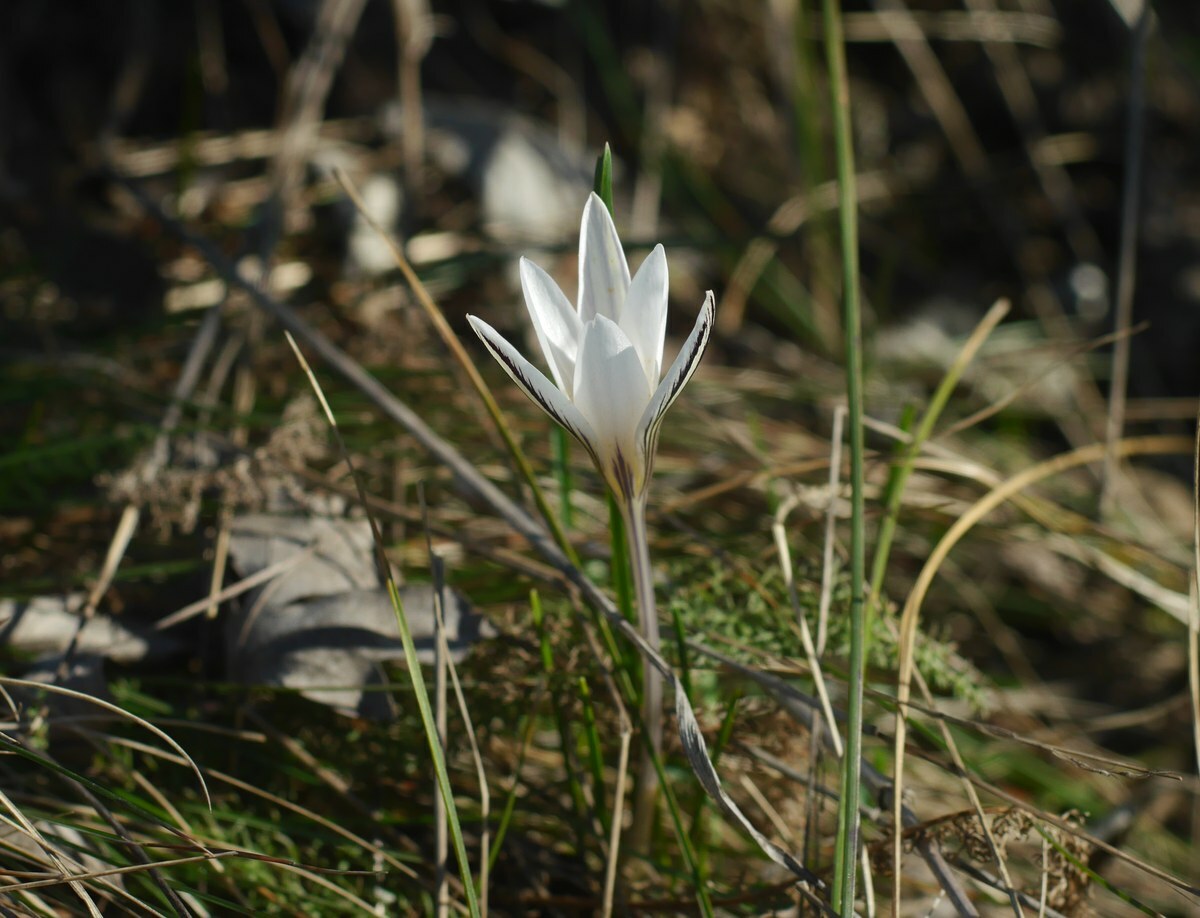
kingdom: Plantae
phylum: Tracheophyta
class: Liliopsida
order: Asparagales
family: Iridaceae
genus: Crocus
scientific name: Crocus reticulatus
